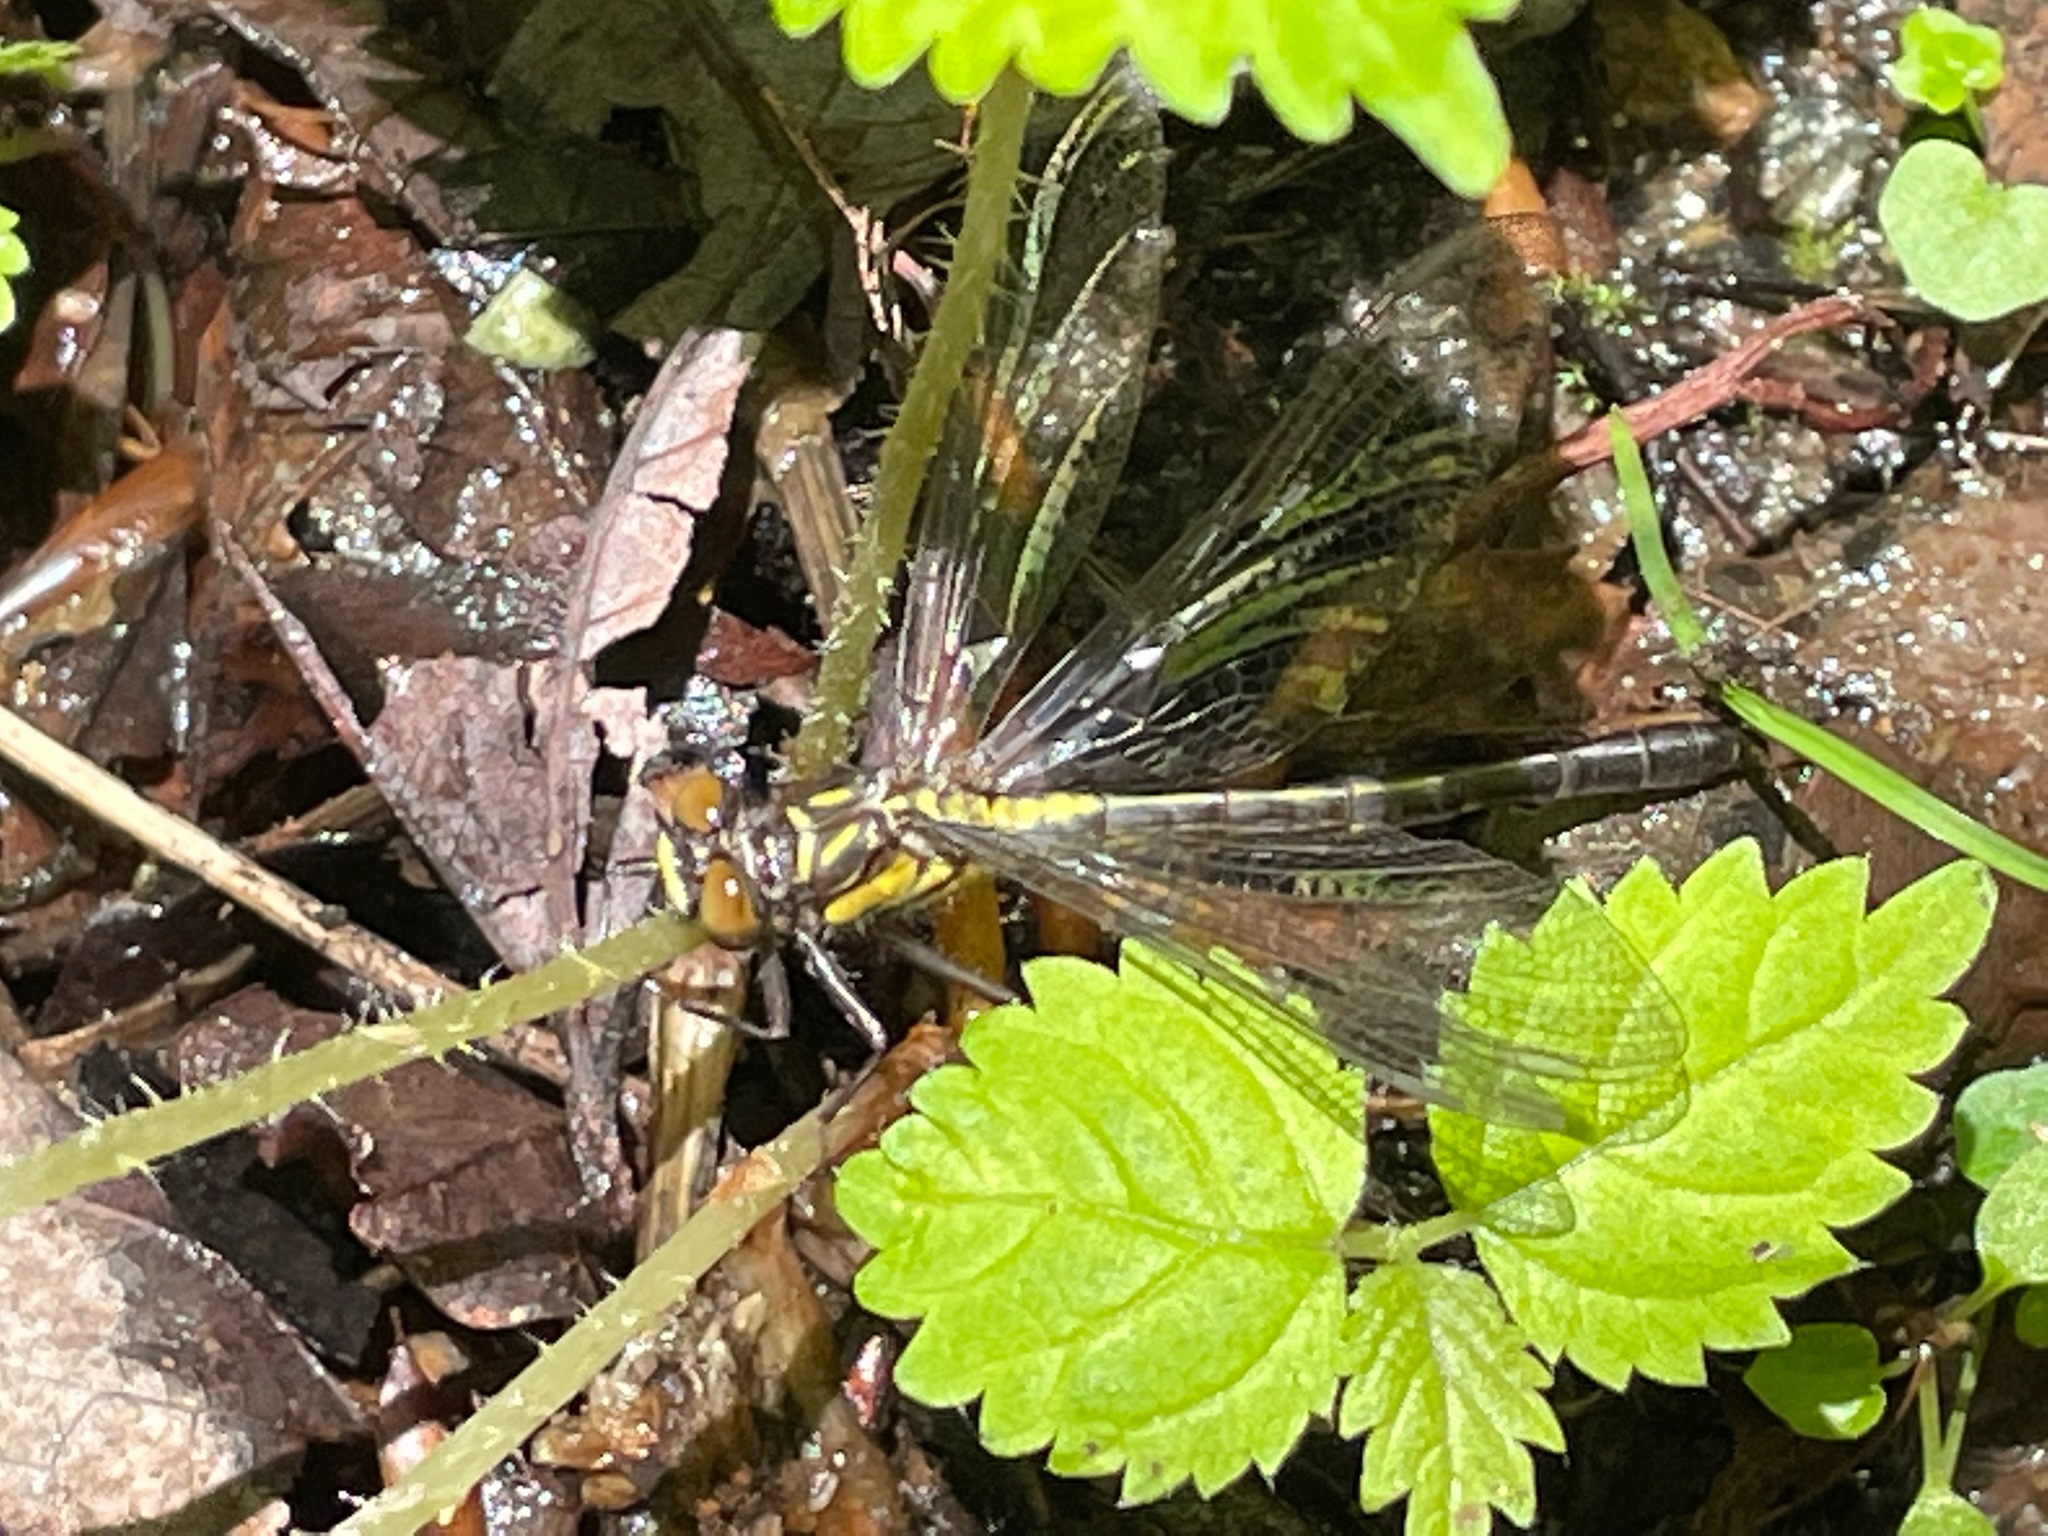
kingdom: Animalia
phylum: Arthropoda
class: Insecta
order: Odonata
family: Gomphidae
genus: Lanthus
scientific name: Lanthus vernalis
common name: Southern pygmy clubtail
